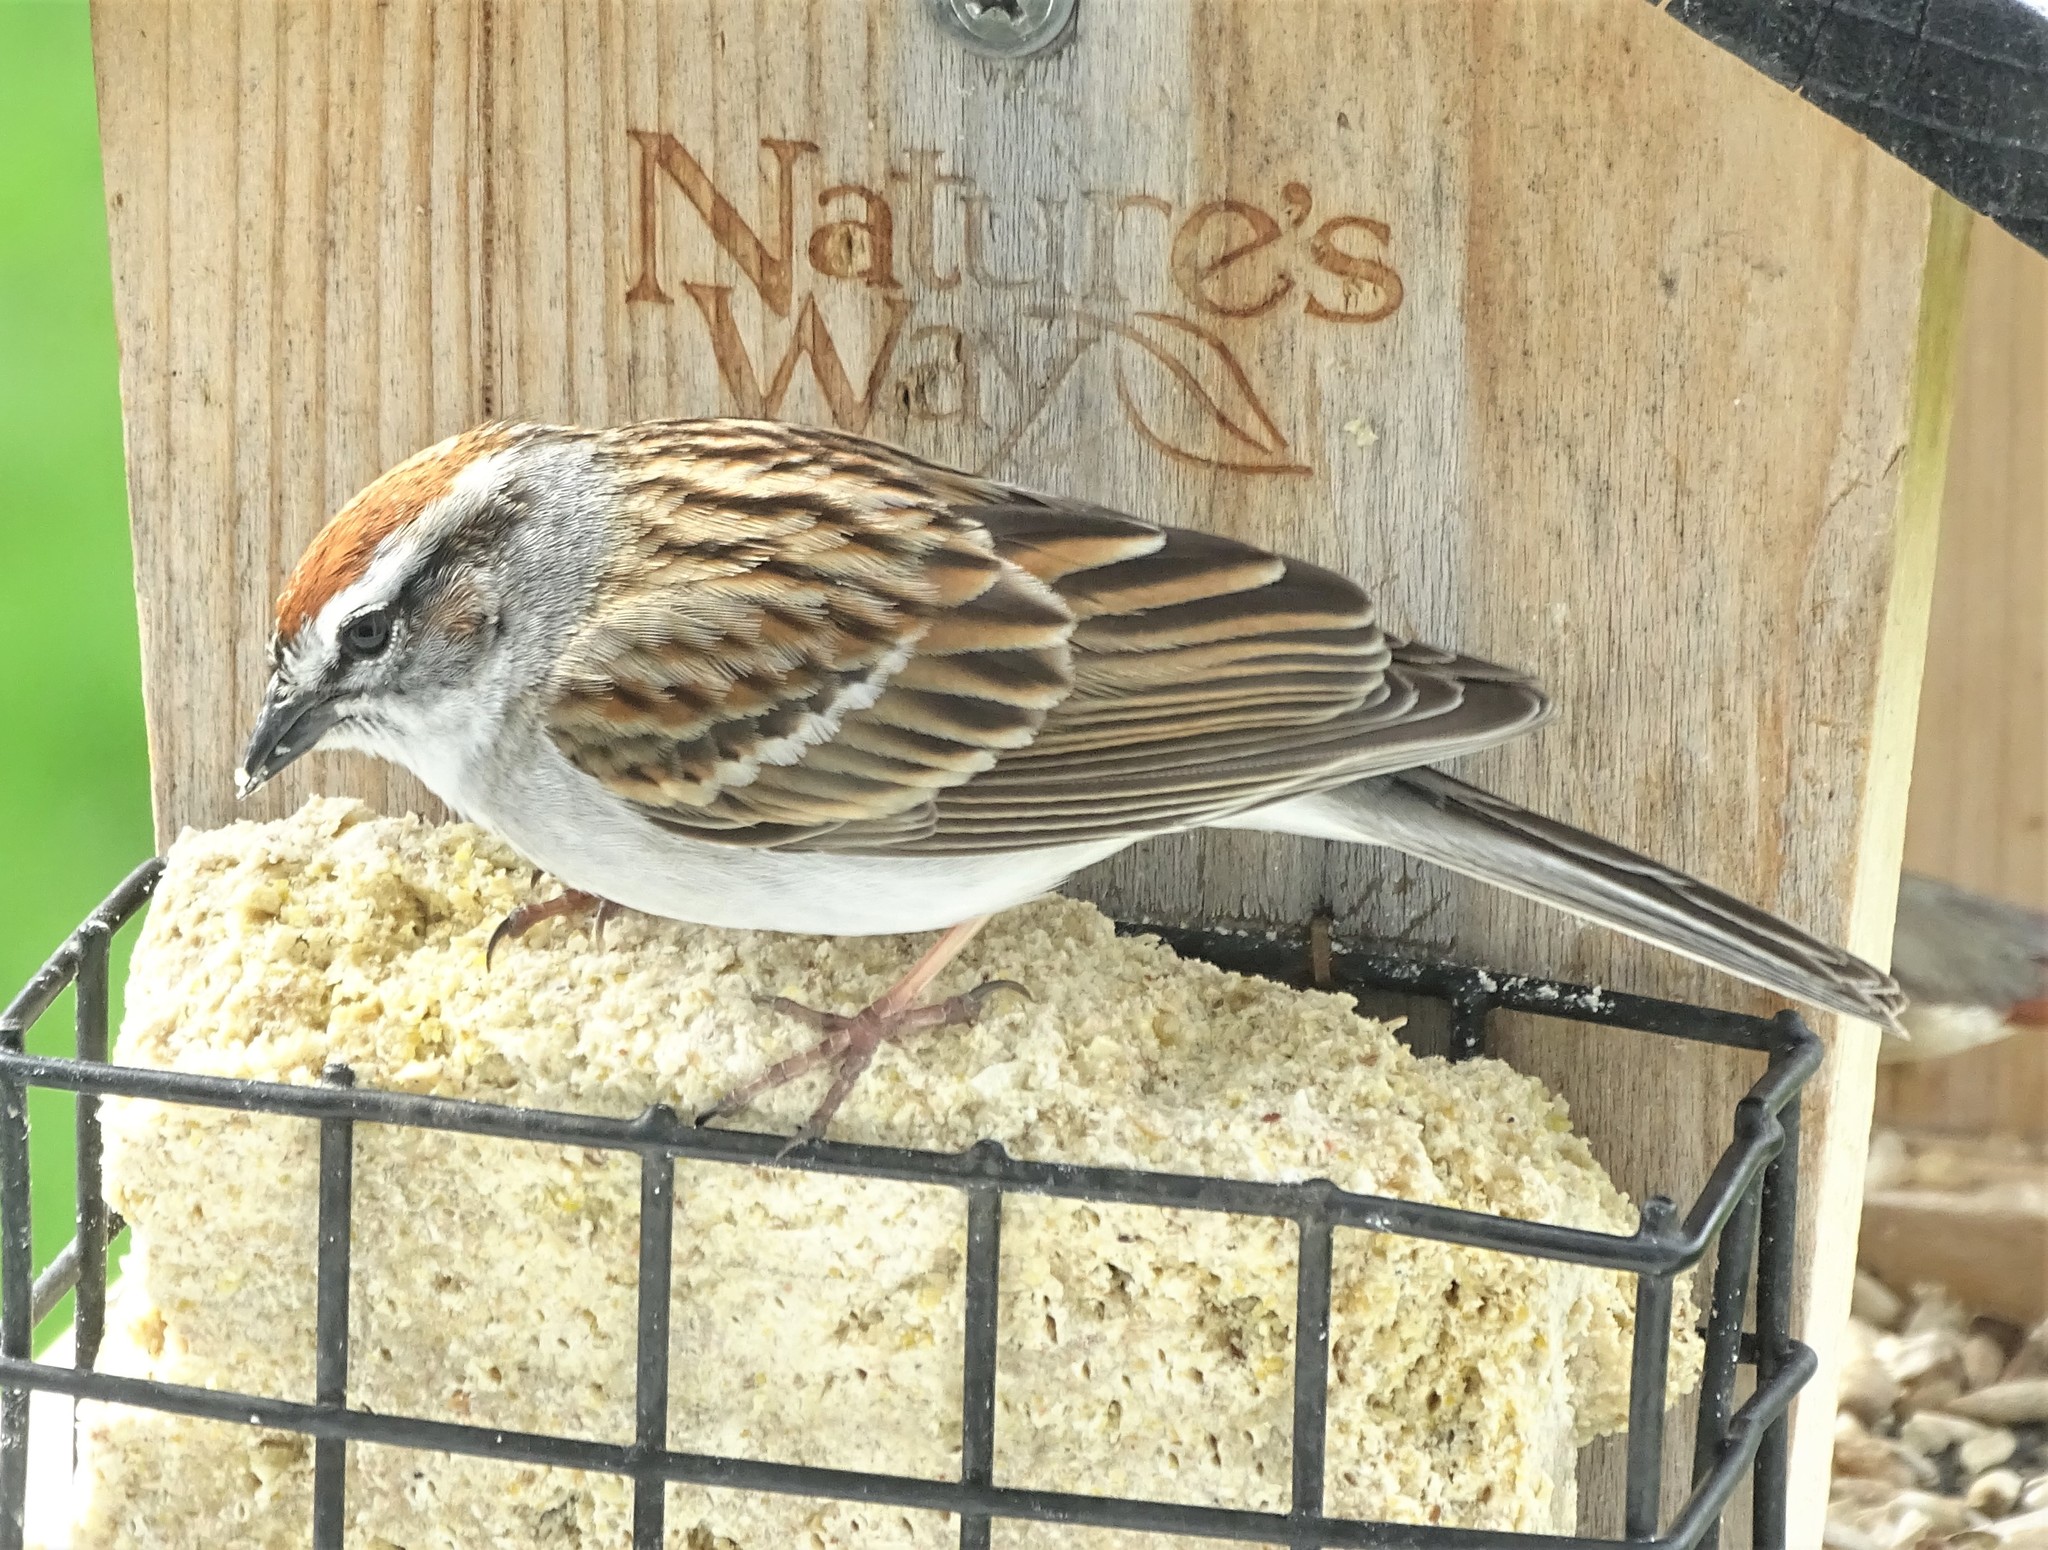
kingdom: Animalia
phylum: Chordata
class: Aves
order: Passeriformes
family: Passerellidae
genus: Spizella
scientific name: Spizella passerina
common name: Chipping sparrow
